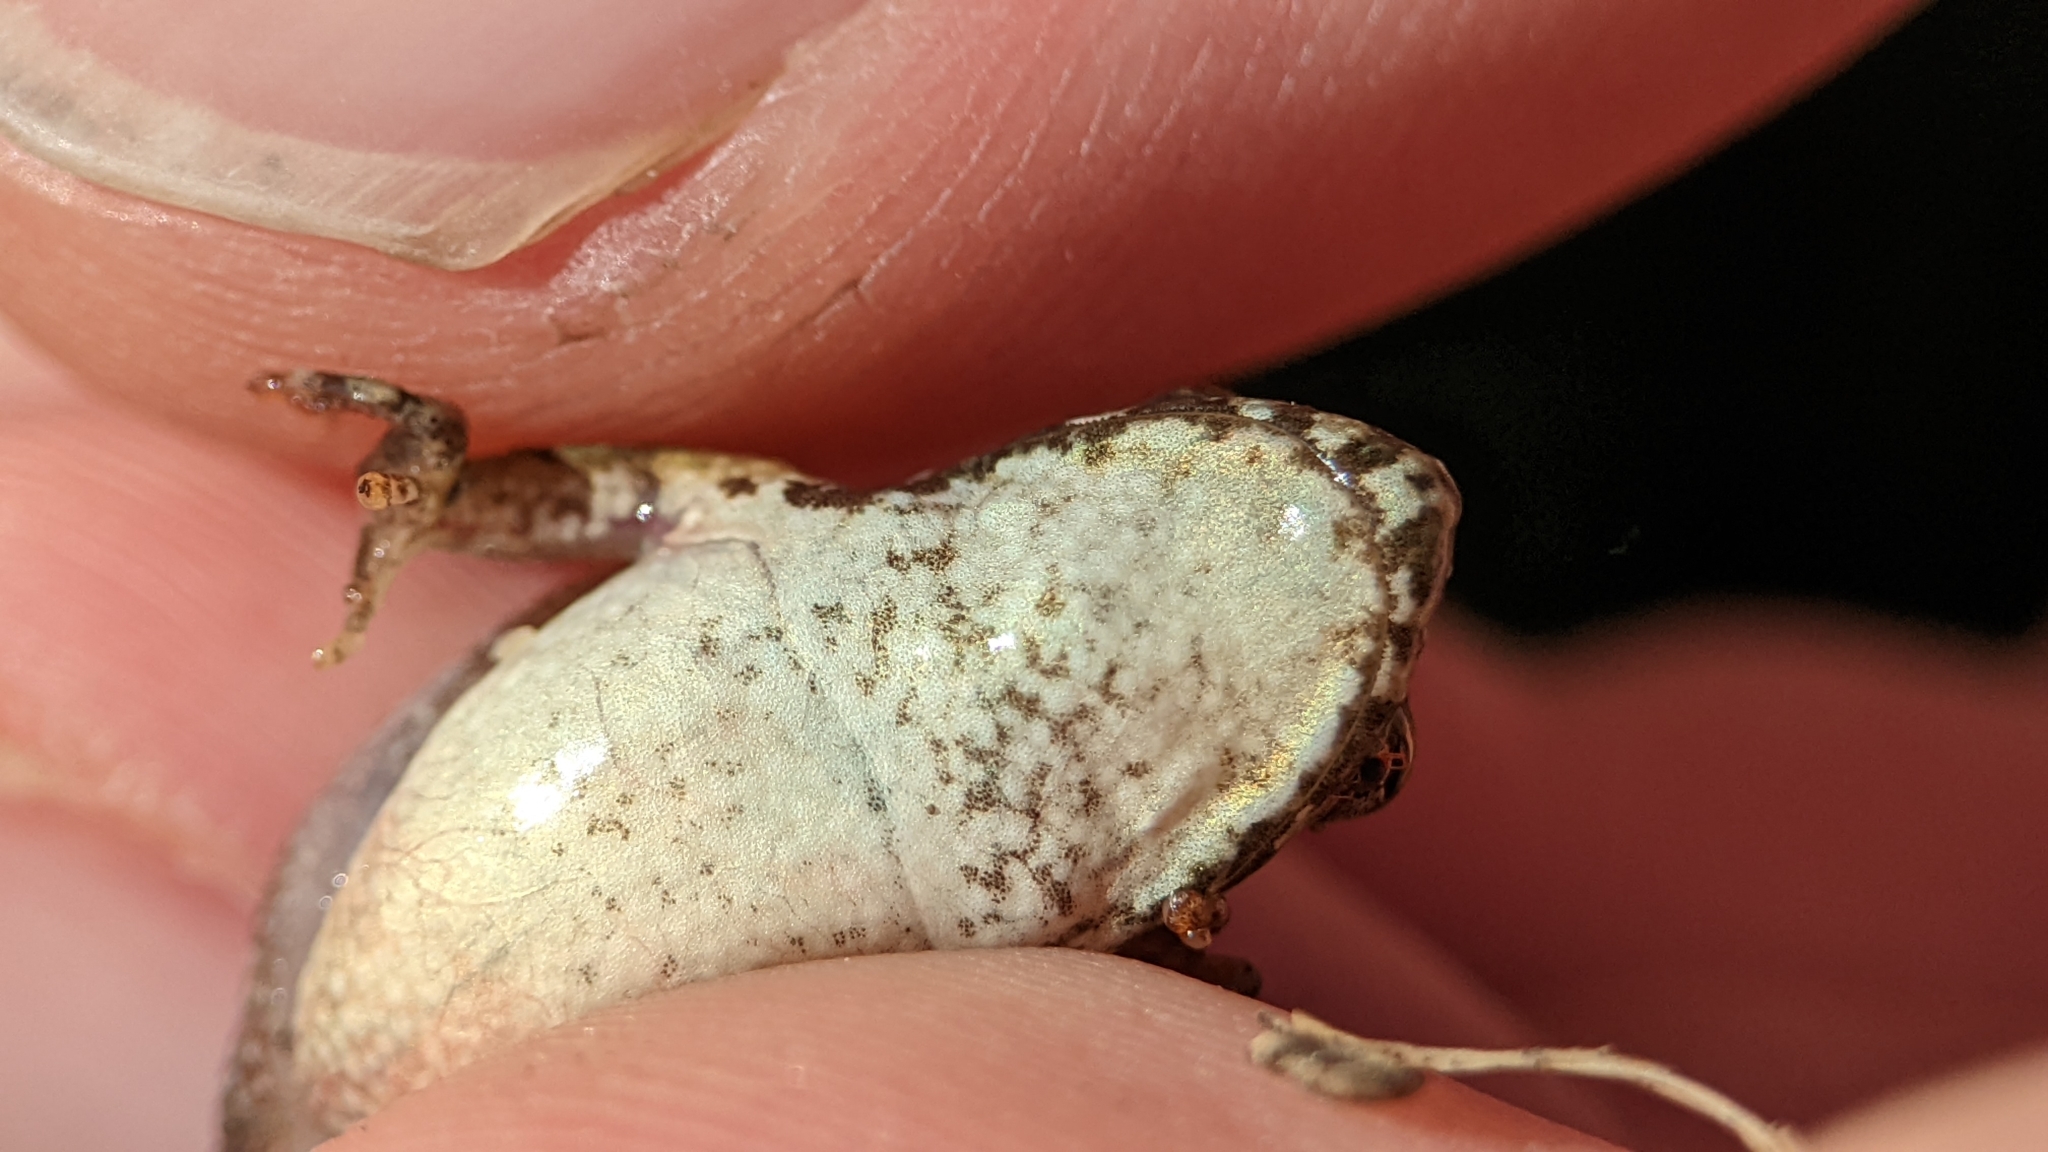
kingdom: Animalia
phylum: Chordata
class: Amphibia
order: Anura
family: Hylidae
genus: Acris
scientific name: Acris blanchardi
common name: Blanchard's cricket frog
